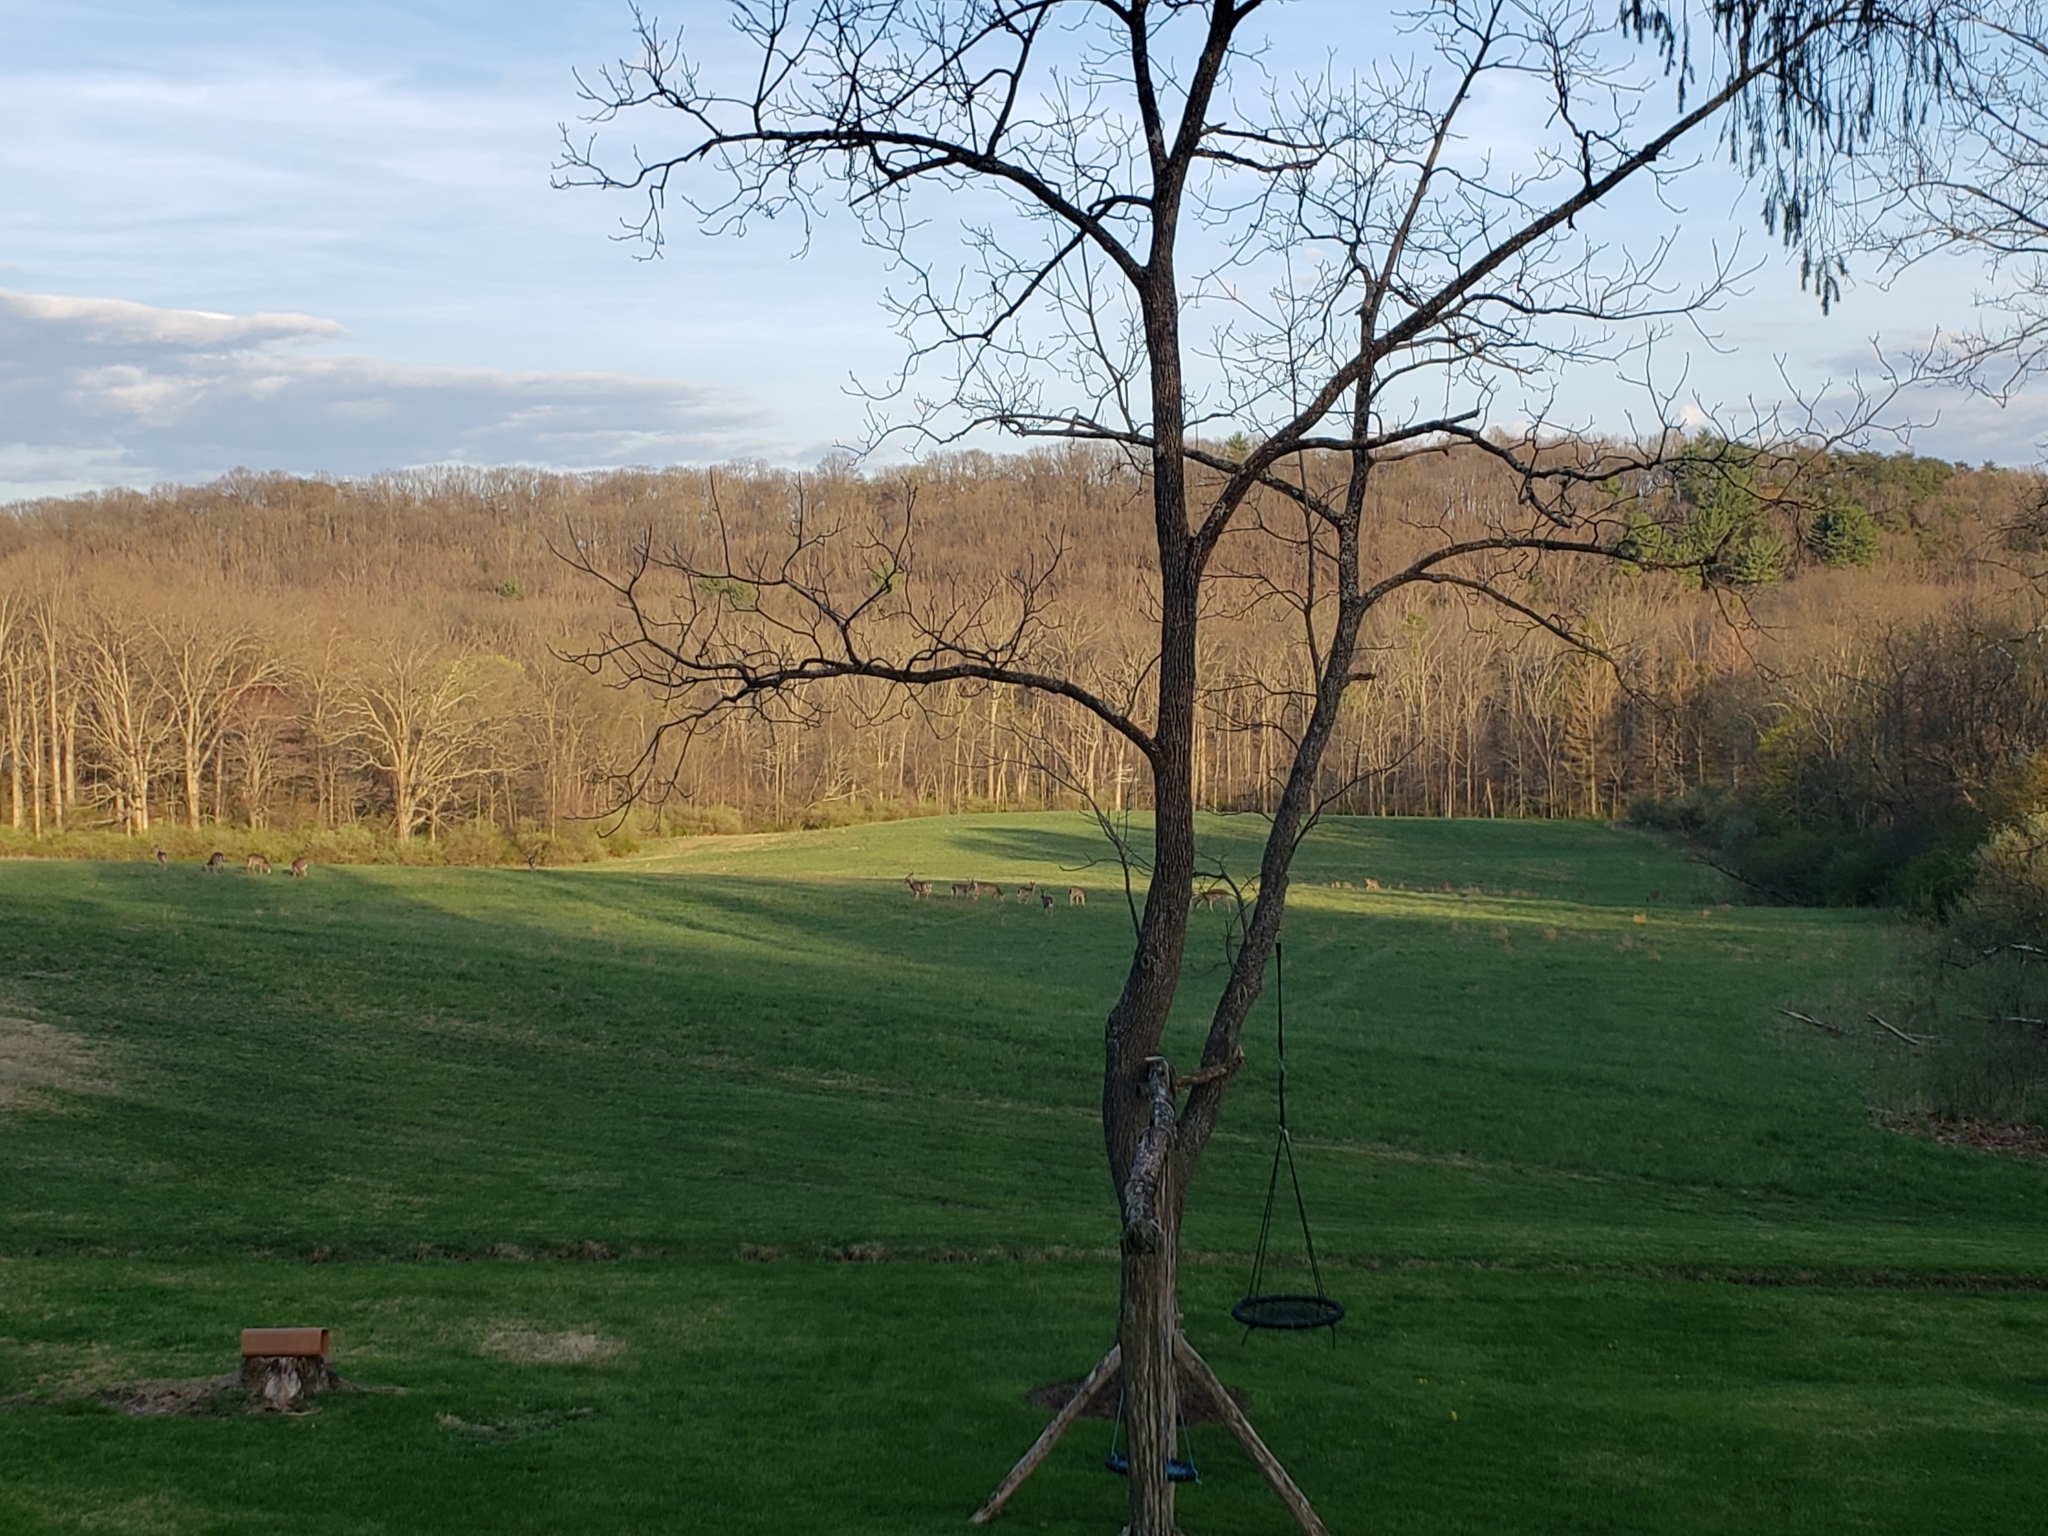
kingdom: Animalia
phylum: Chordata
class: Mammalia
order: Artiodactyla
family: Cervidae
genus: Odocoileus
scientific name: Odocoileus virginianus
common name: White-tailed deer
